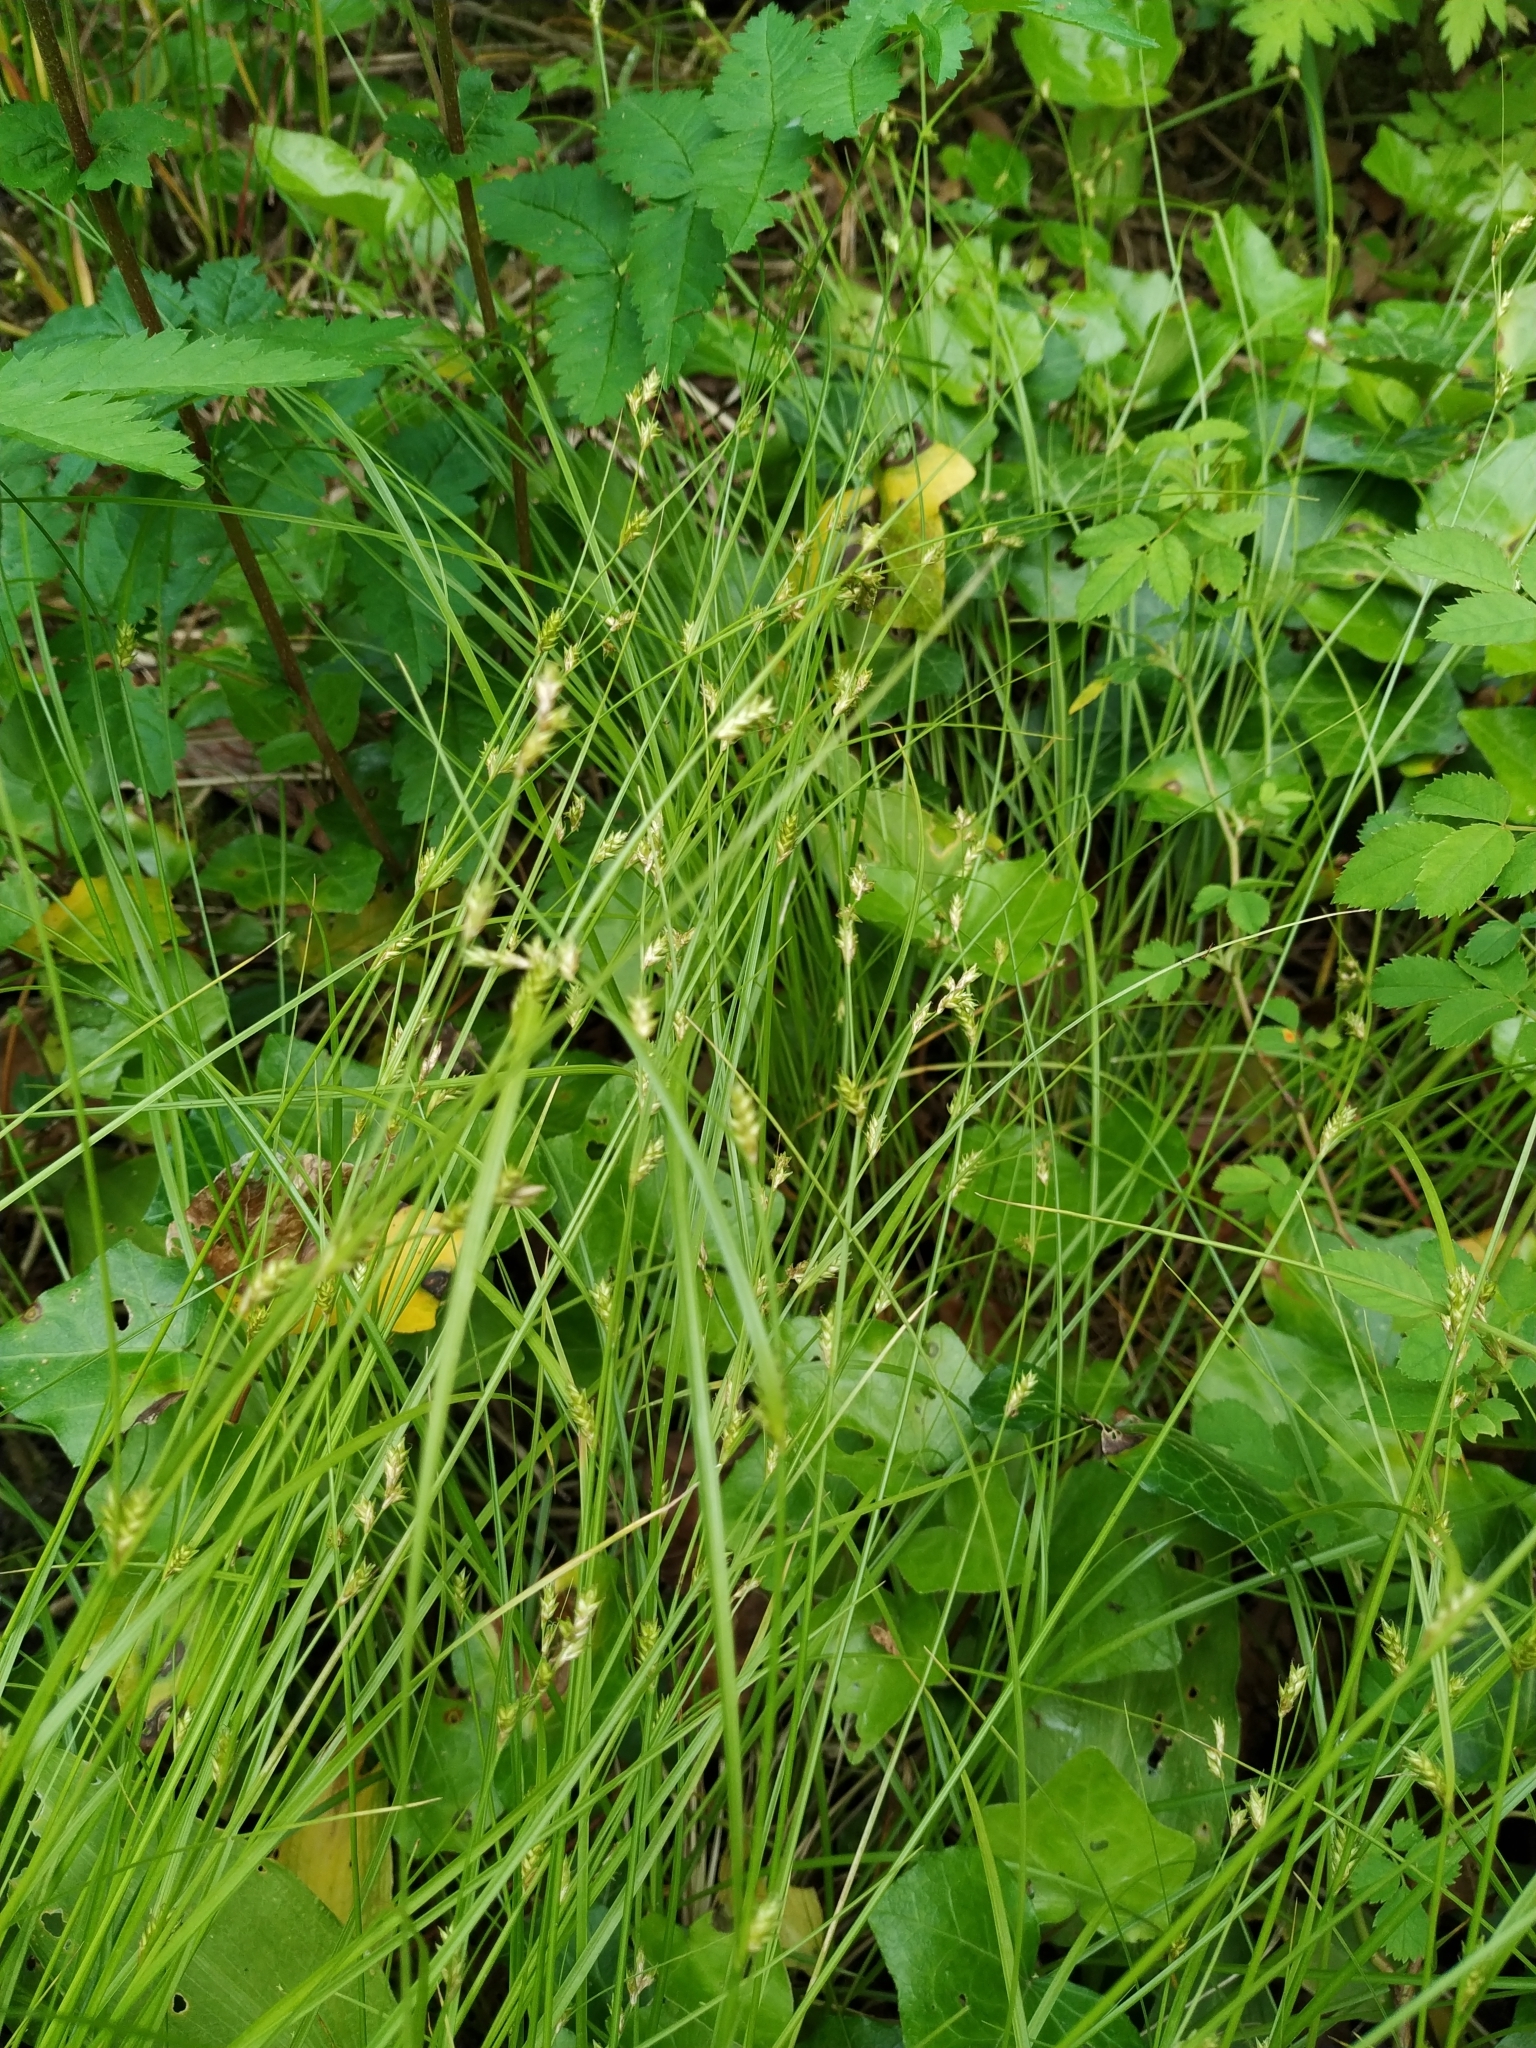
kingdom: Plantae
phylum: Tracheophyta
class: Liliopsida
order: Poales
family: Cyperaceae
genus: Carex
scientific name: Carex remota
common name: Remote sedge
